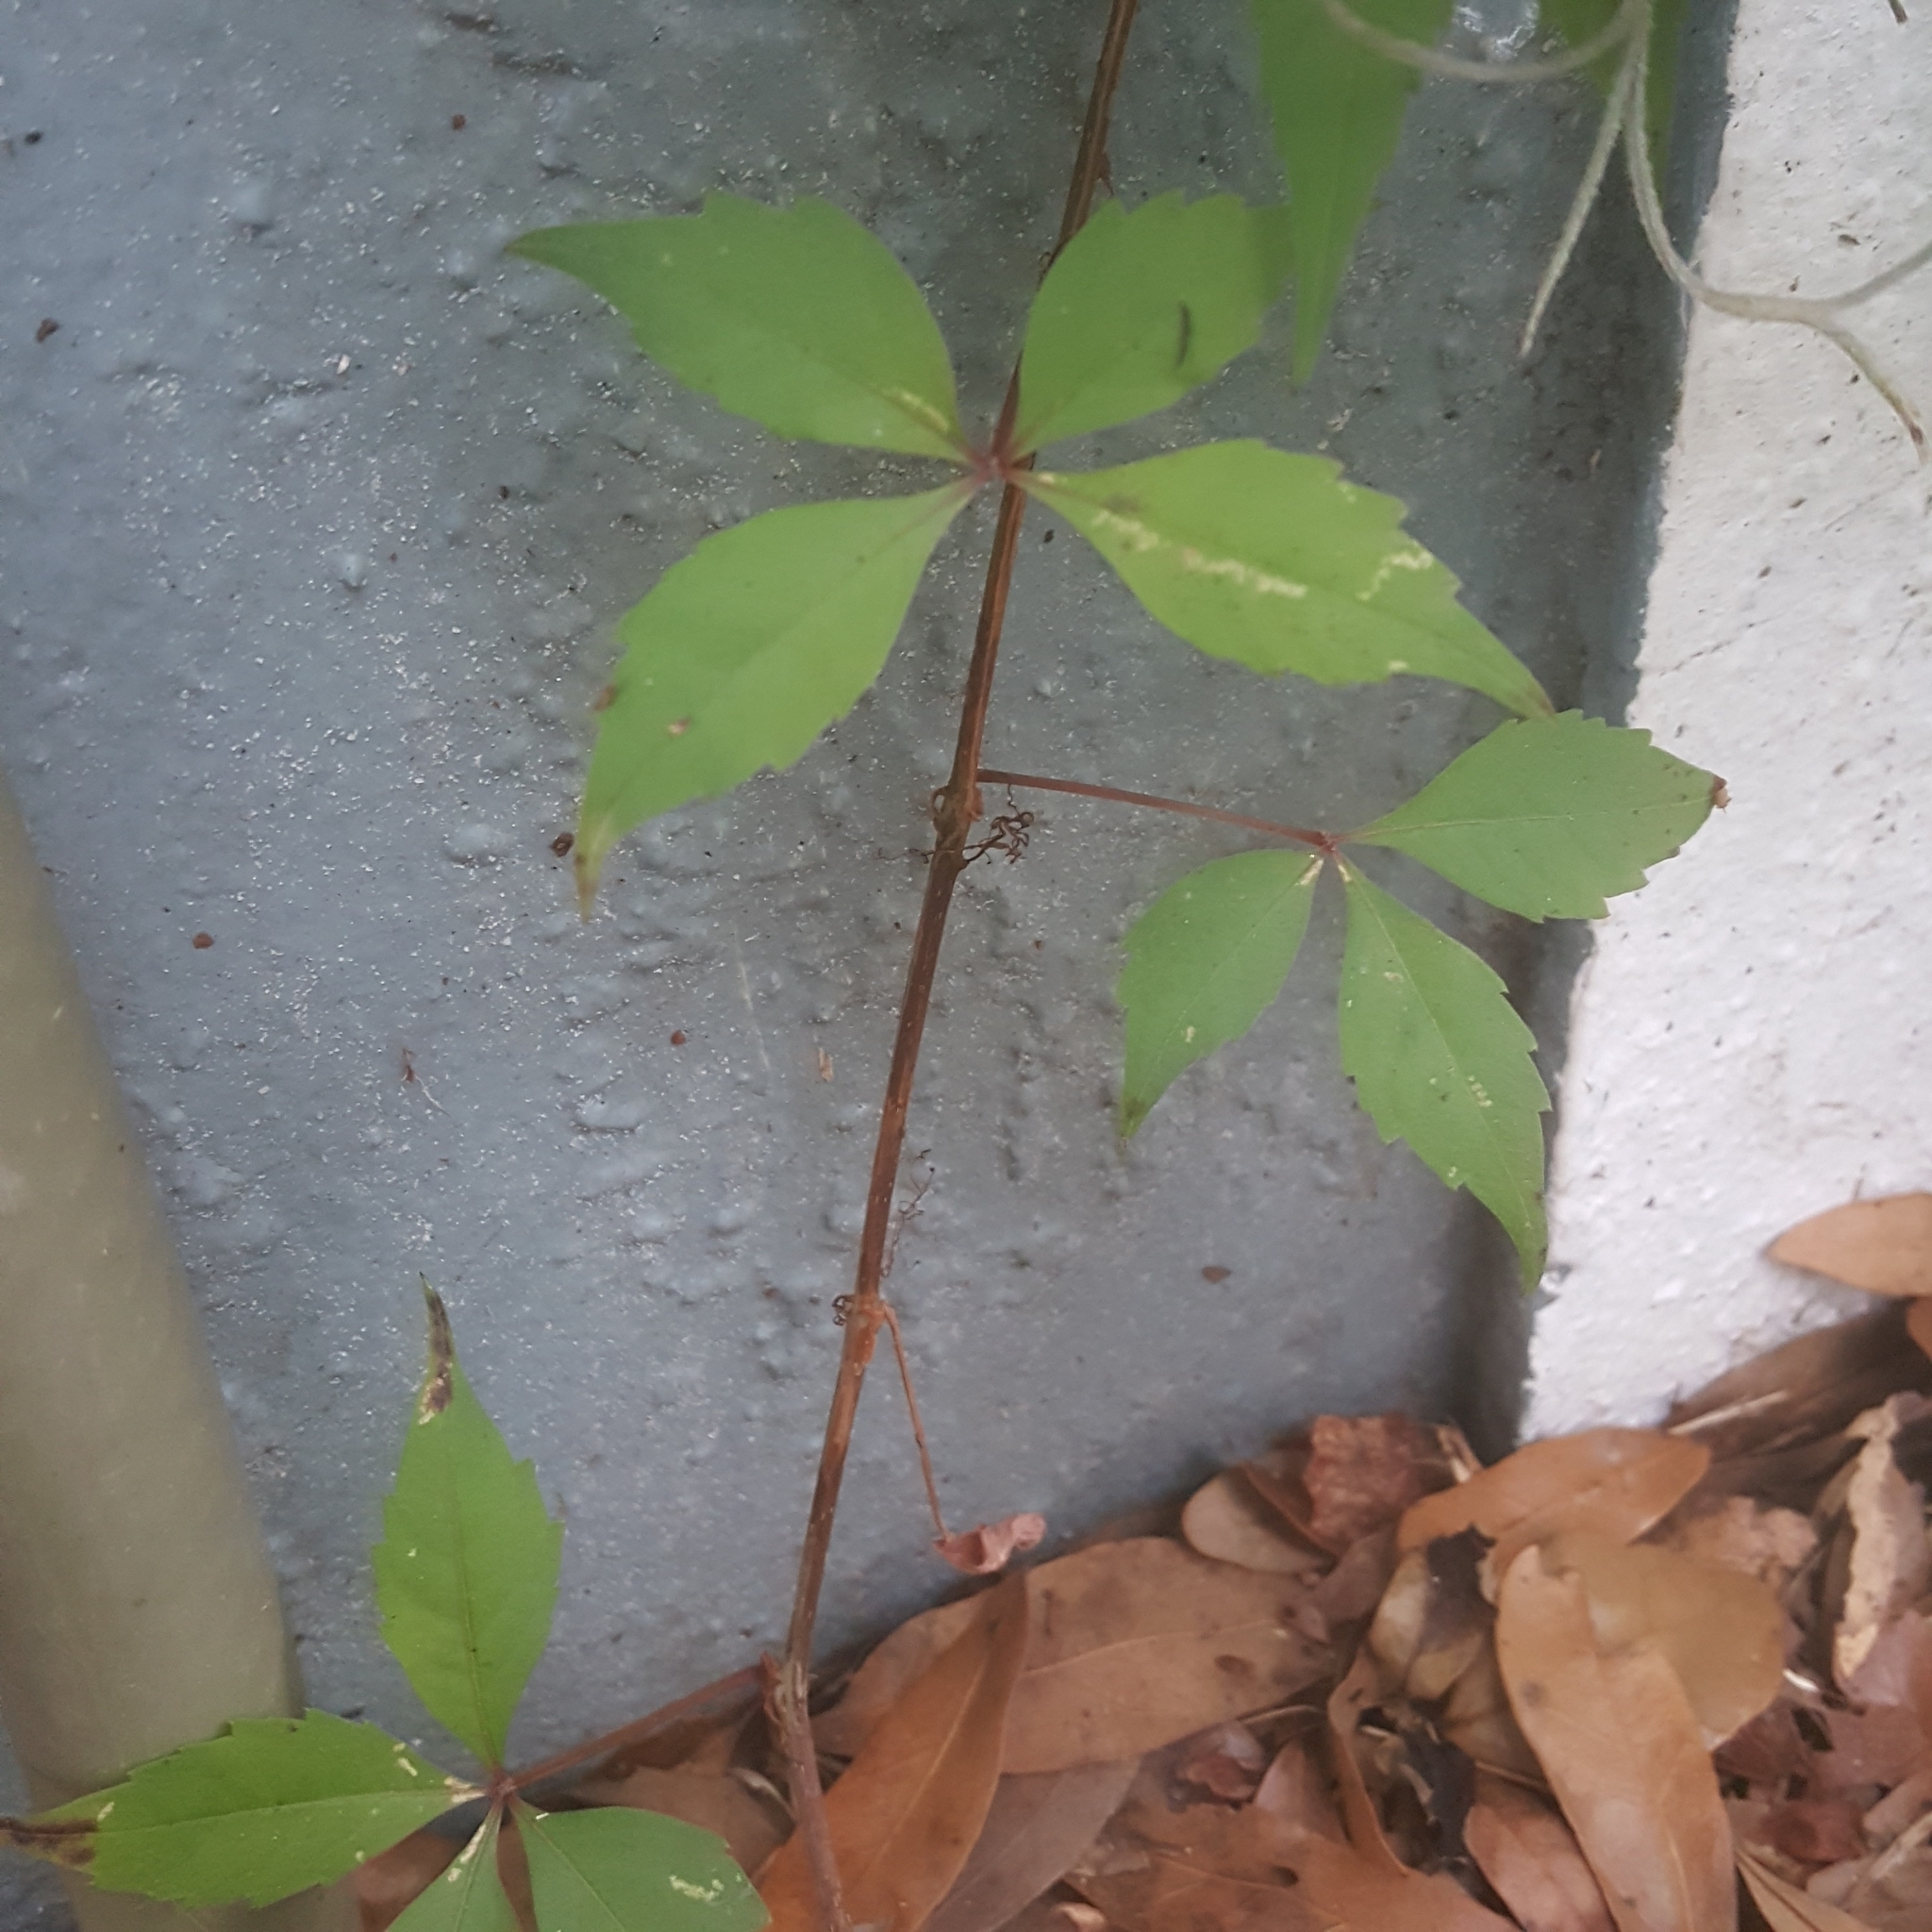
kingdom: Plantae
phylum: Tracheophyta
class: Magnoliopsida
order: Vitales
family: Vitaceae
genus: Parthenocissus
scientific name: Parthenocissus quinquefolia
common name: Virginia-creeper
